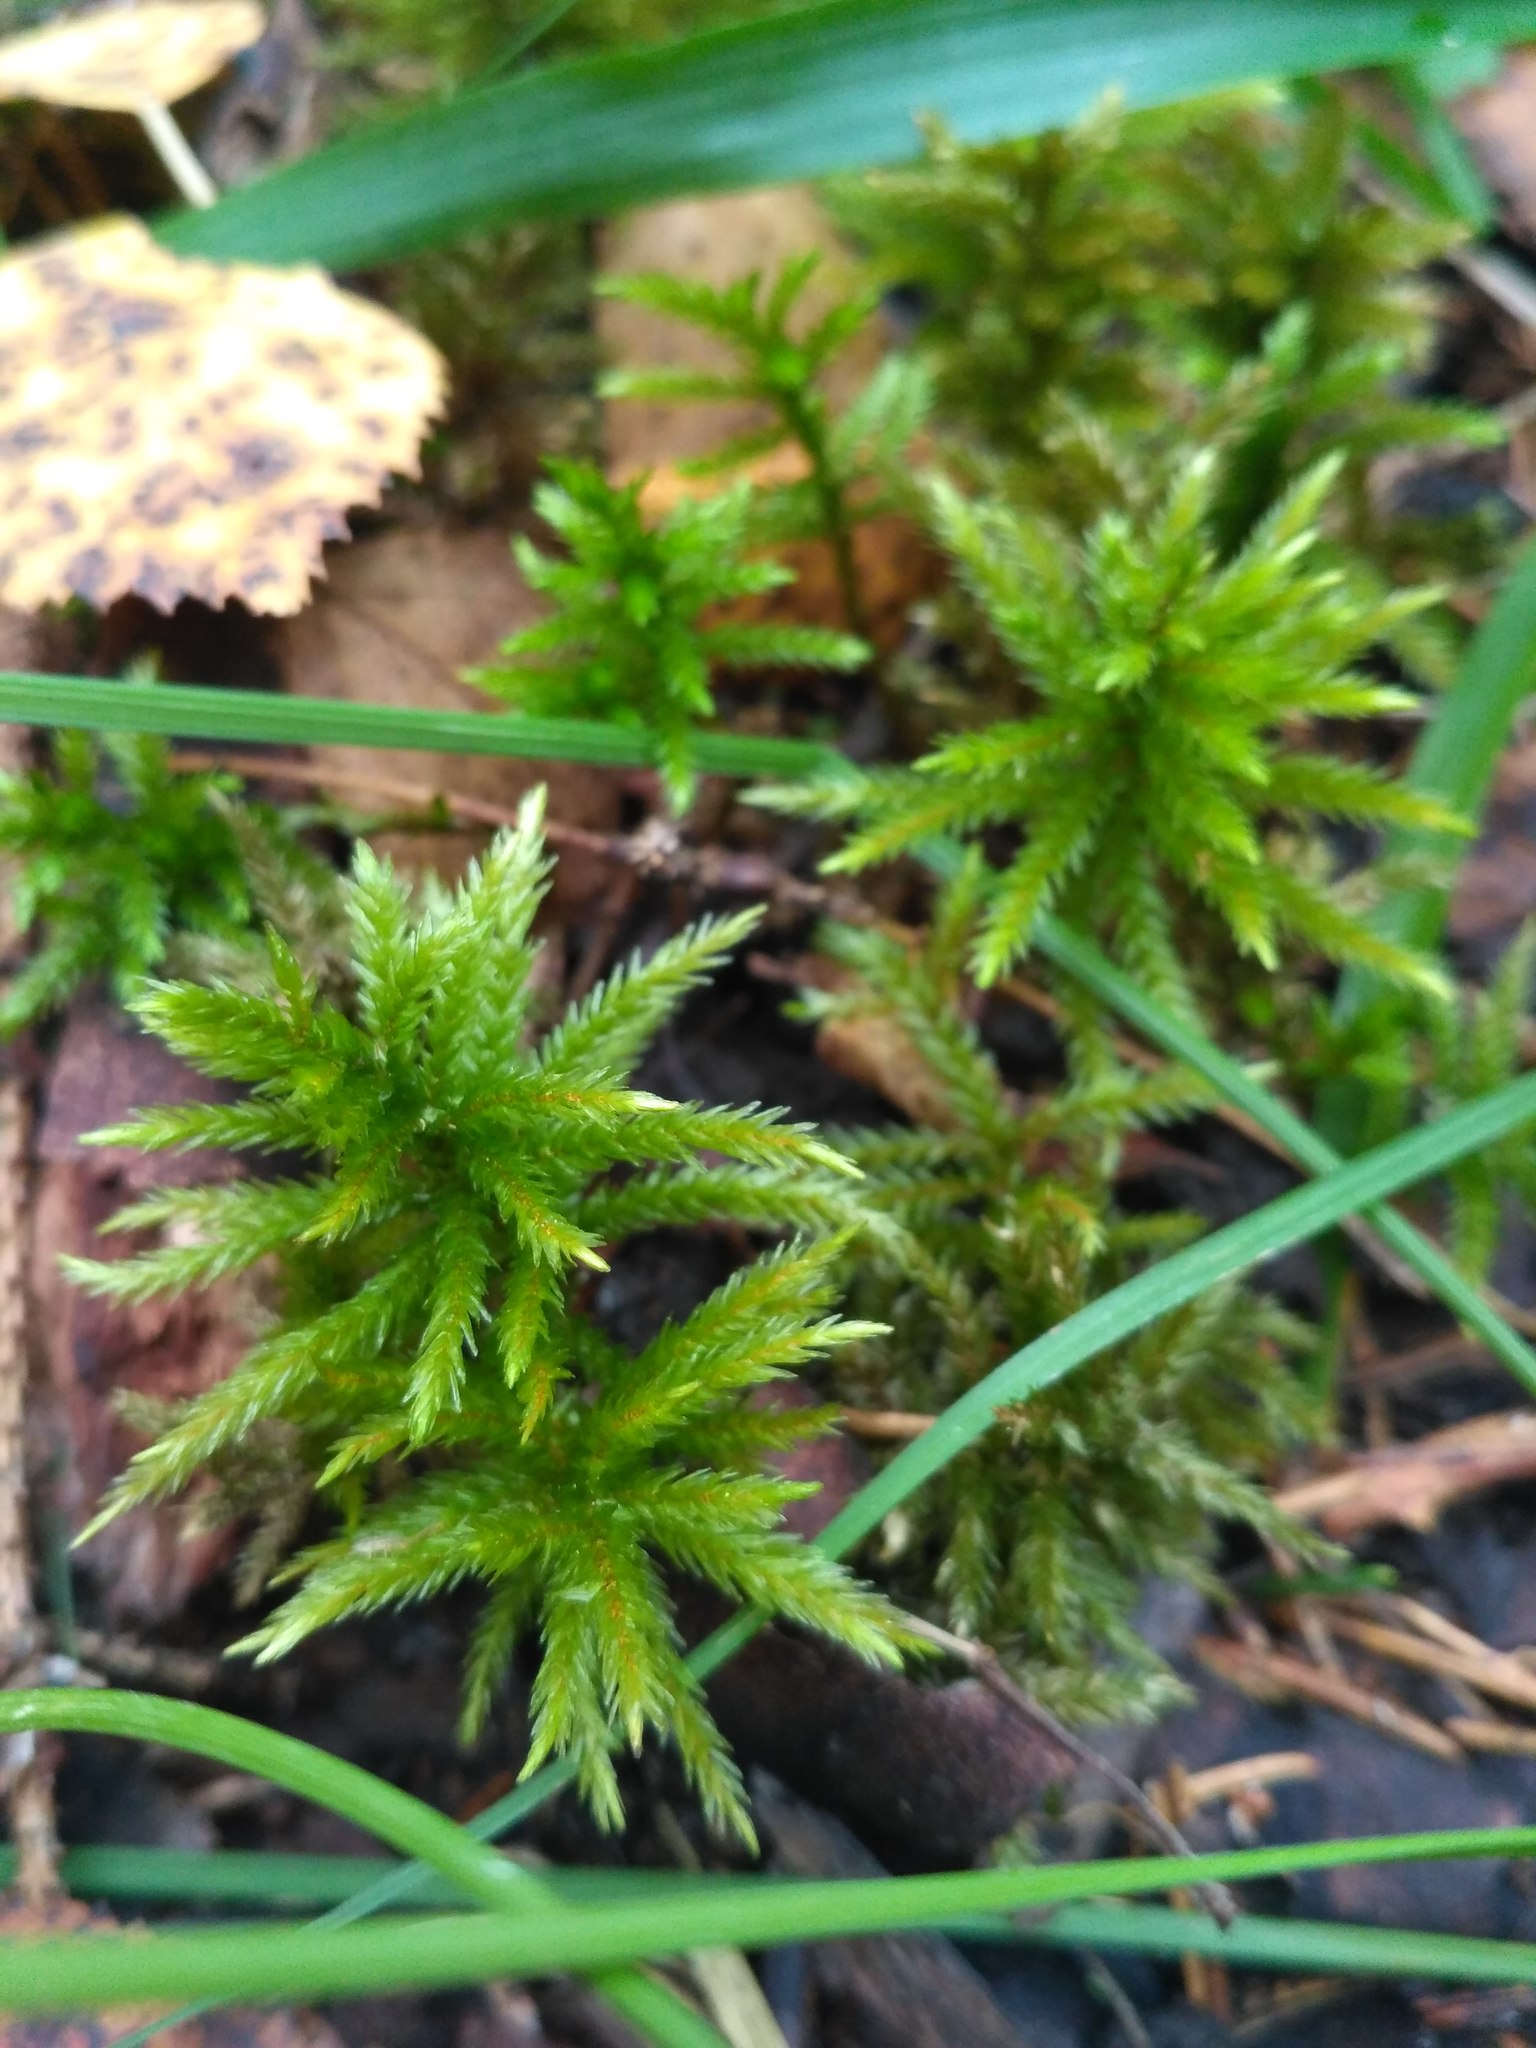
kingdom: Plantae
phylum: Bryophyta
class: Bryopsida
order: Hypnales
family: Climaciaceae
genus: Climacium
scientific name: Climacium dendroides
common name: Northern tree moss
